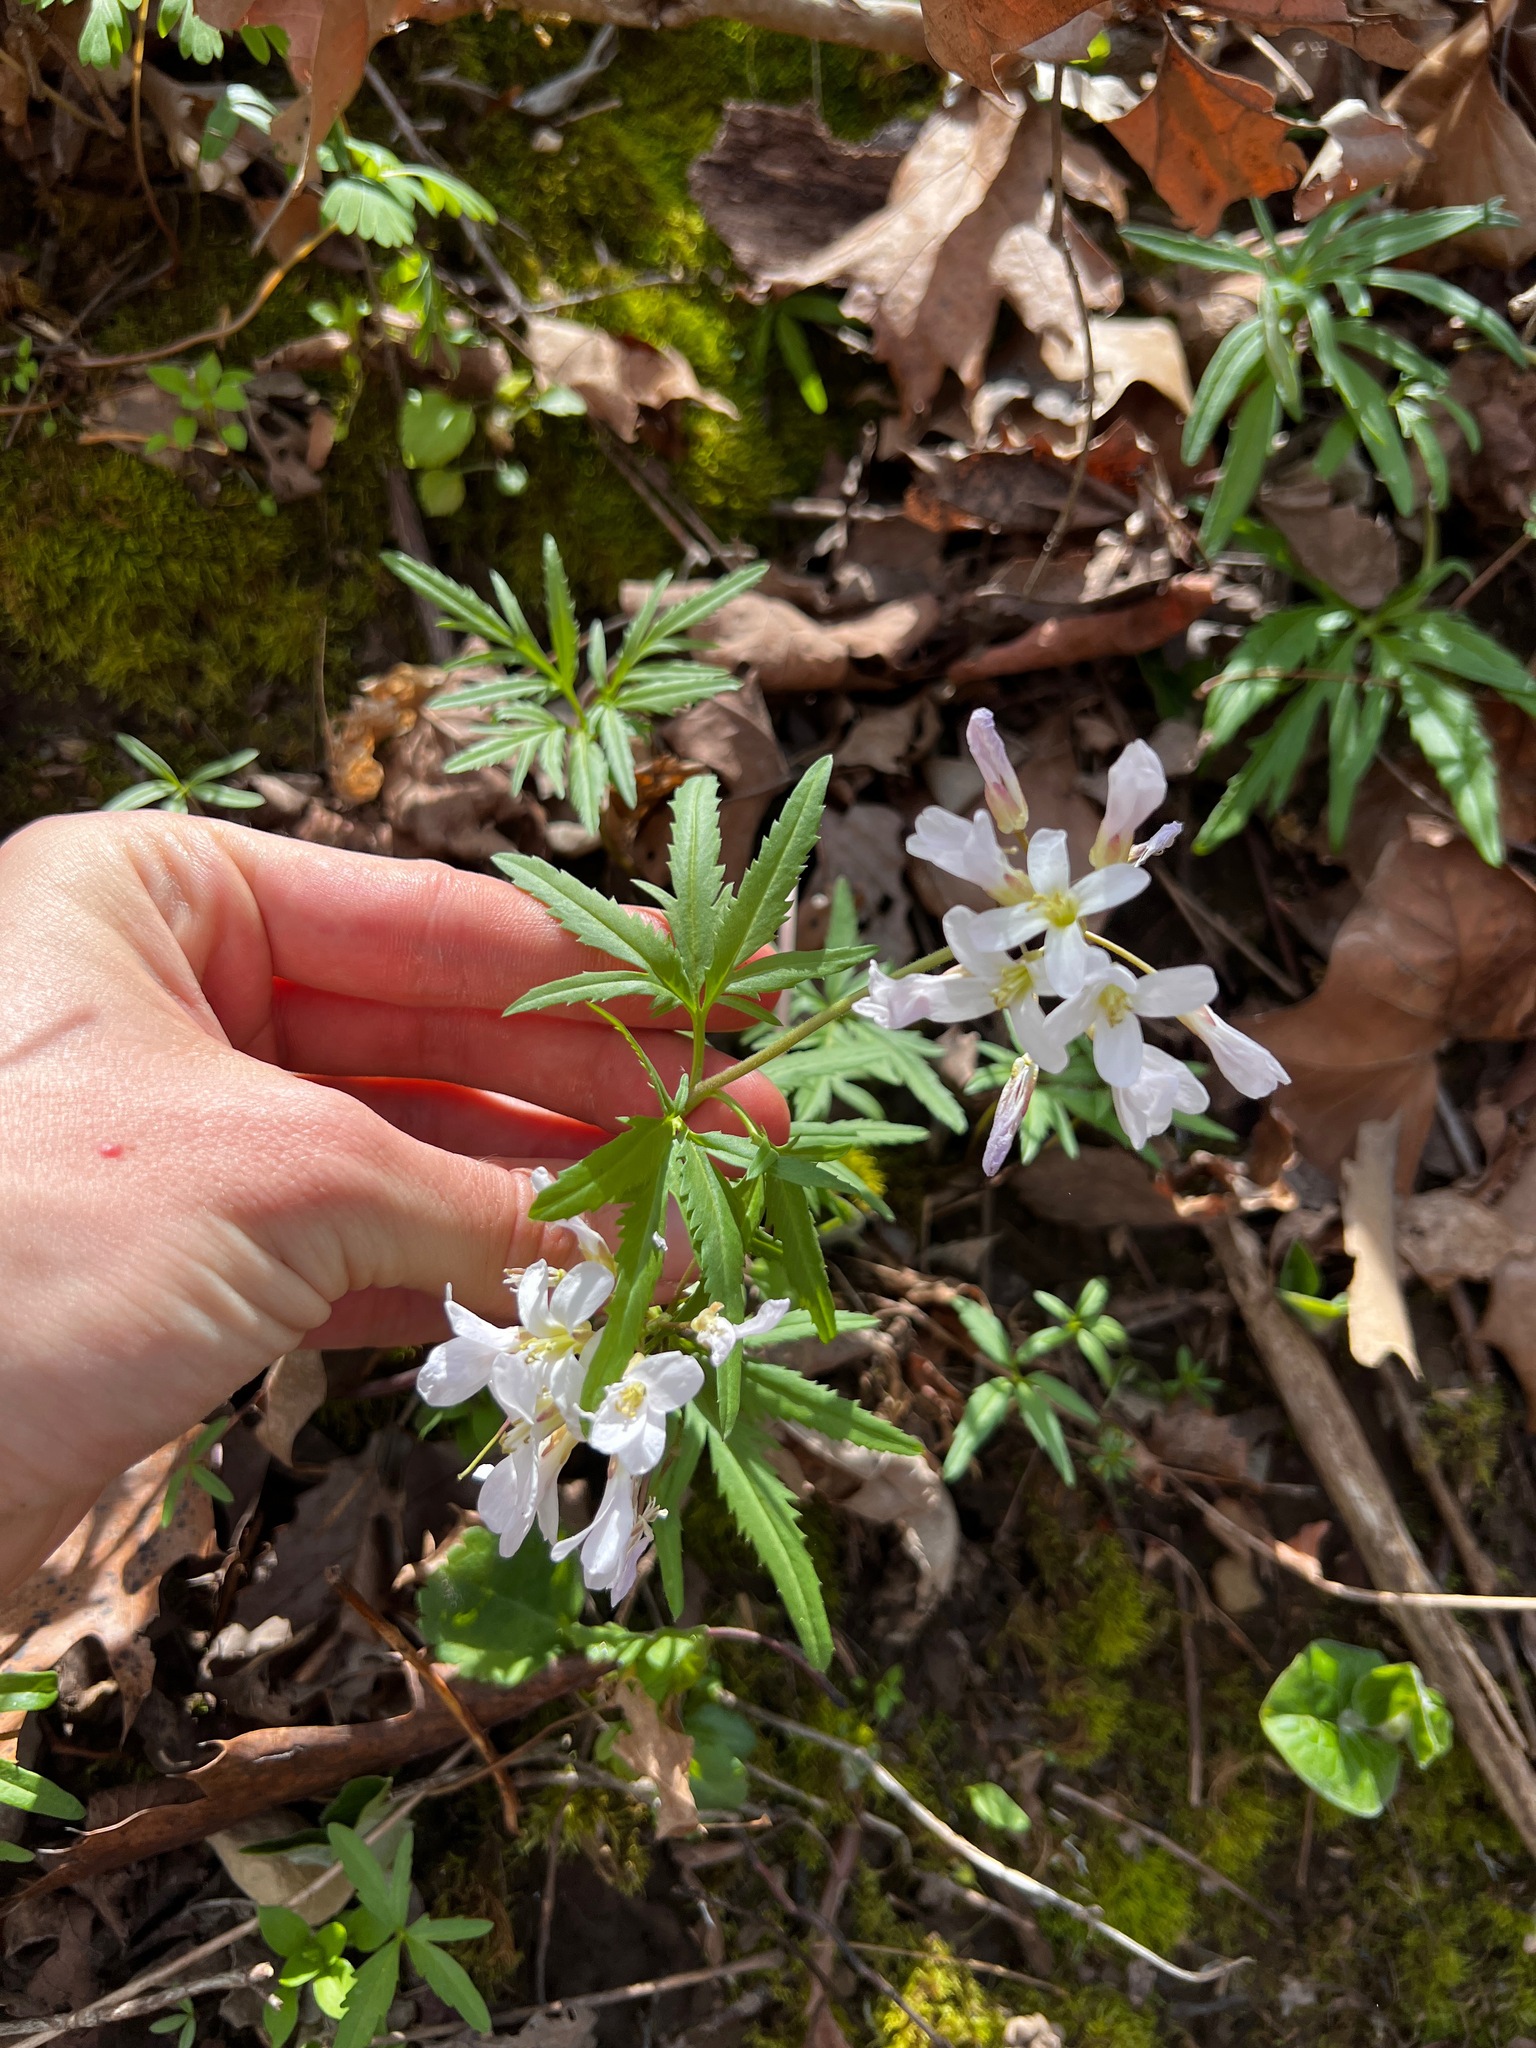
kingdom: Plantae
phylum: Tracheophyta
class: Magnoliopsida
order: Brassicales
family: Brassicaceae
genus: Cardamine
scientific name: Cardamine concatenata
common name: Cut-leaf toothcup
